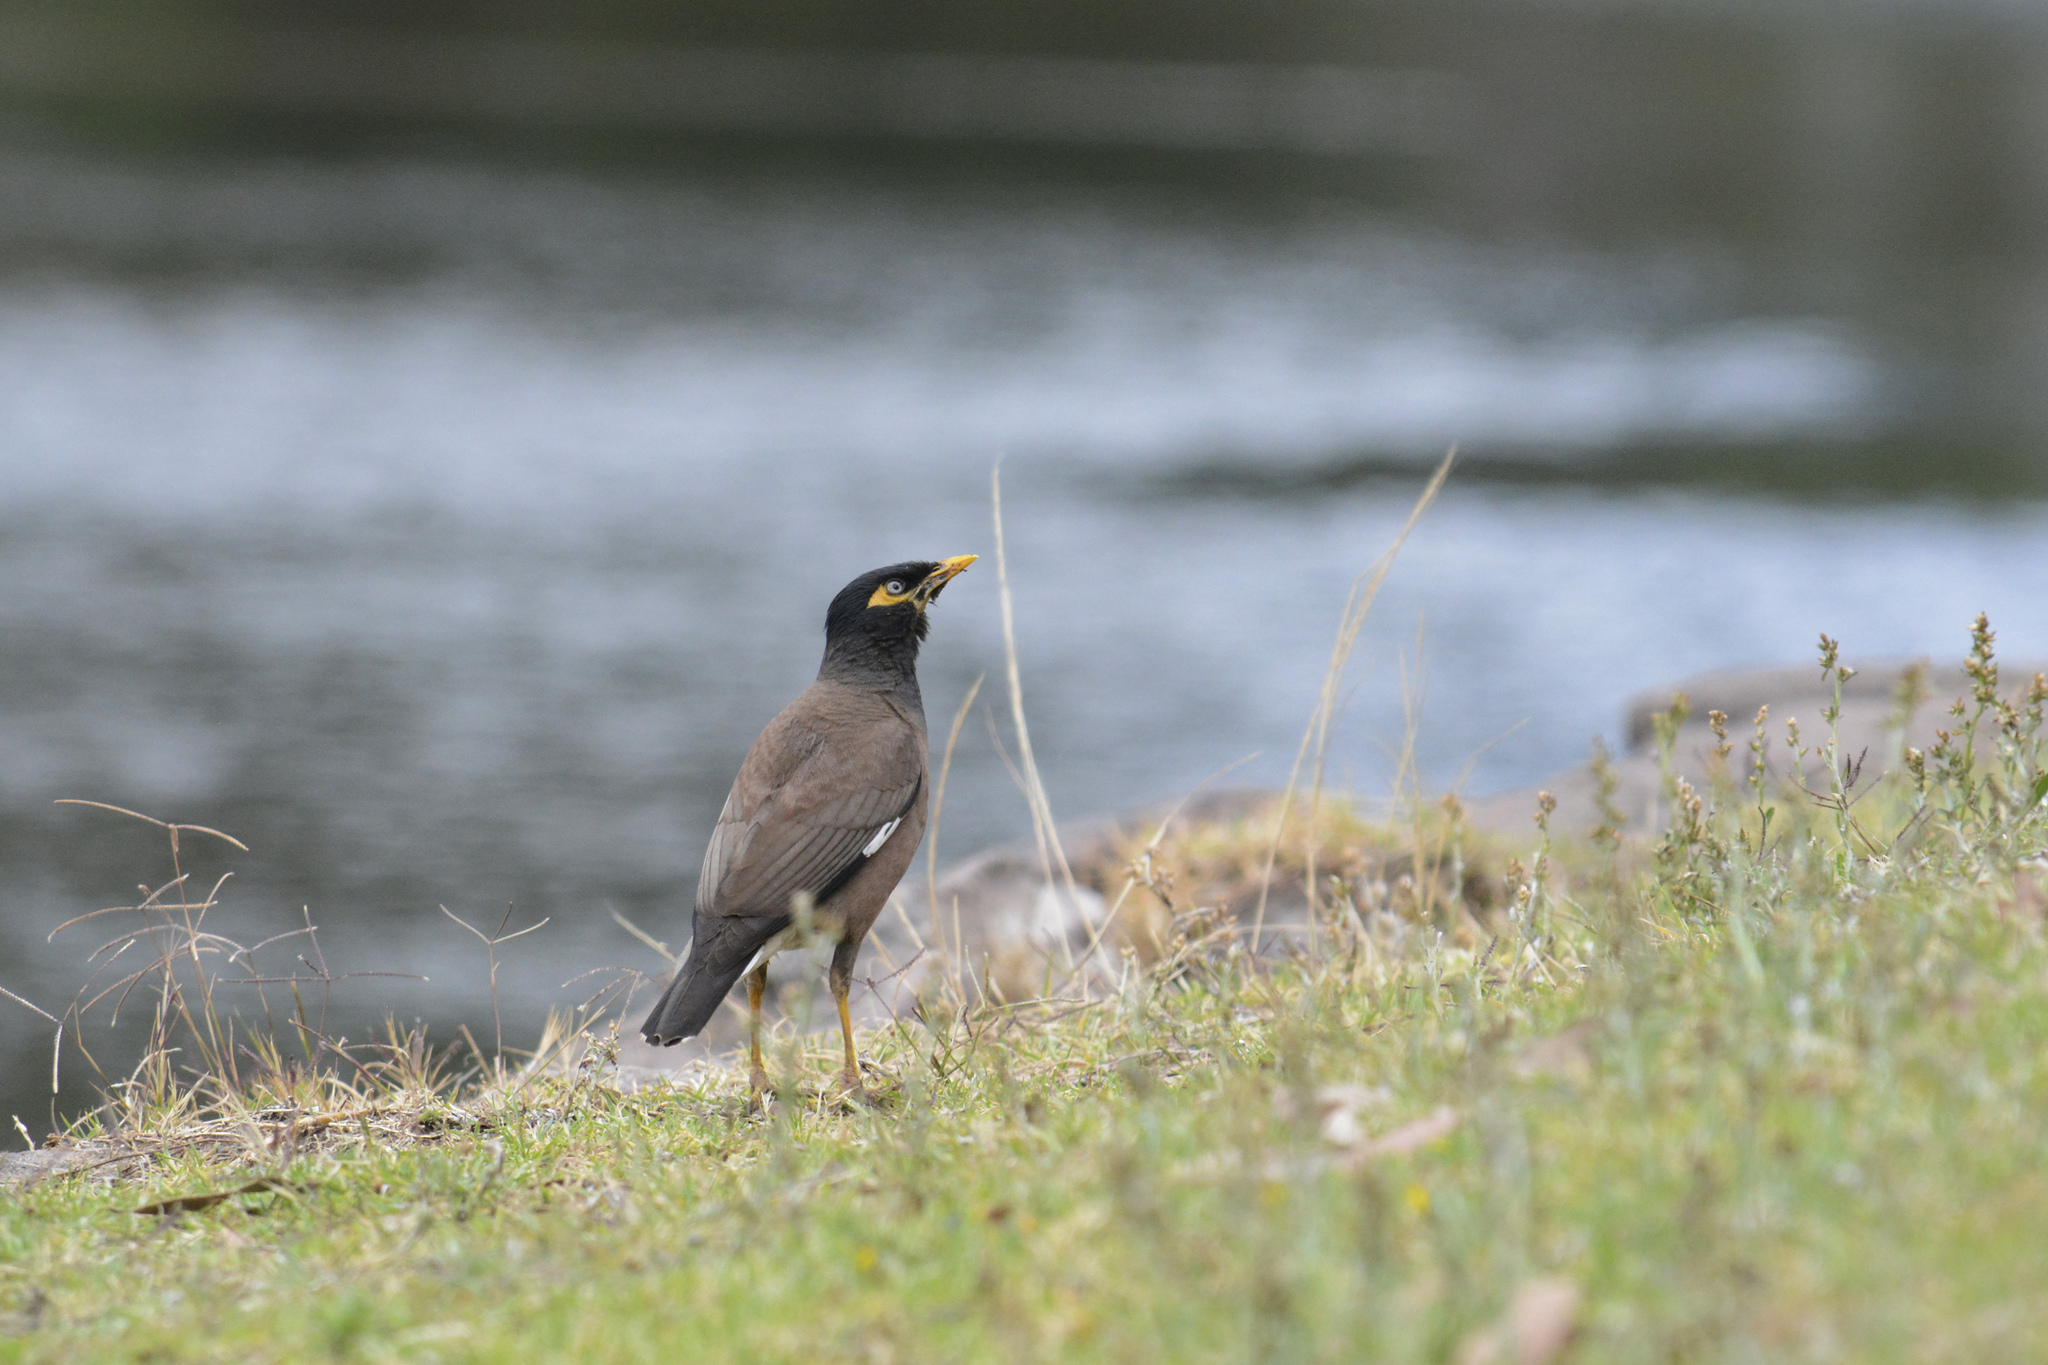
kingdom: Animalia
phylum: Chordata
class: Aves
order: Passeriformes
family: Sturnidae
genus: Acridotheres
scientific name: Acridotheres tristis
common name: Common myna
